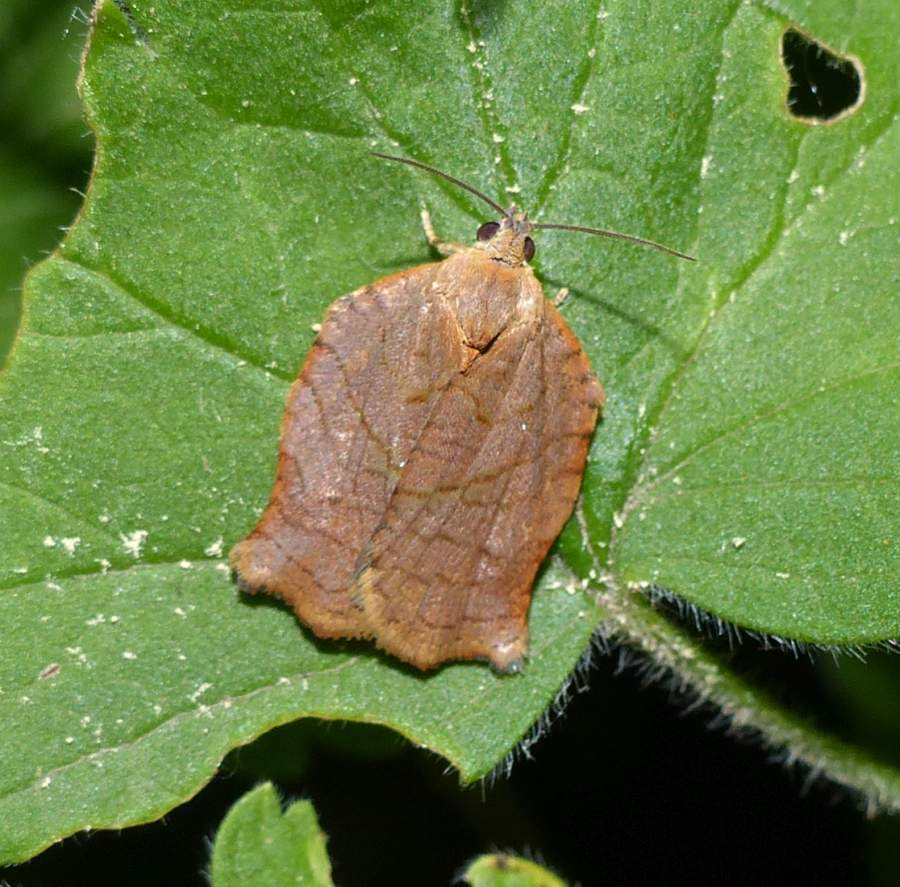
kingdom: Animalia
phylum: Arthropoda
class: Insecta
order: Lepidoptera
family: Tortricidae
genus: Archips
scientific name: Archips purpurana
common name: Omnivorous leafroller
